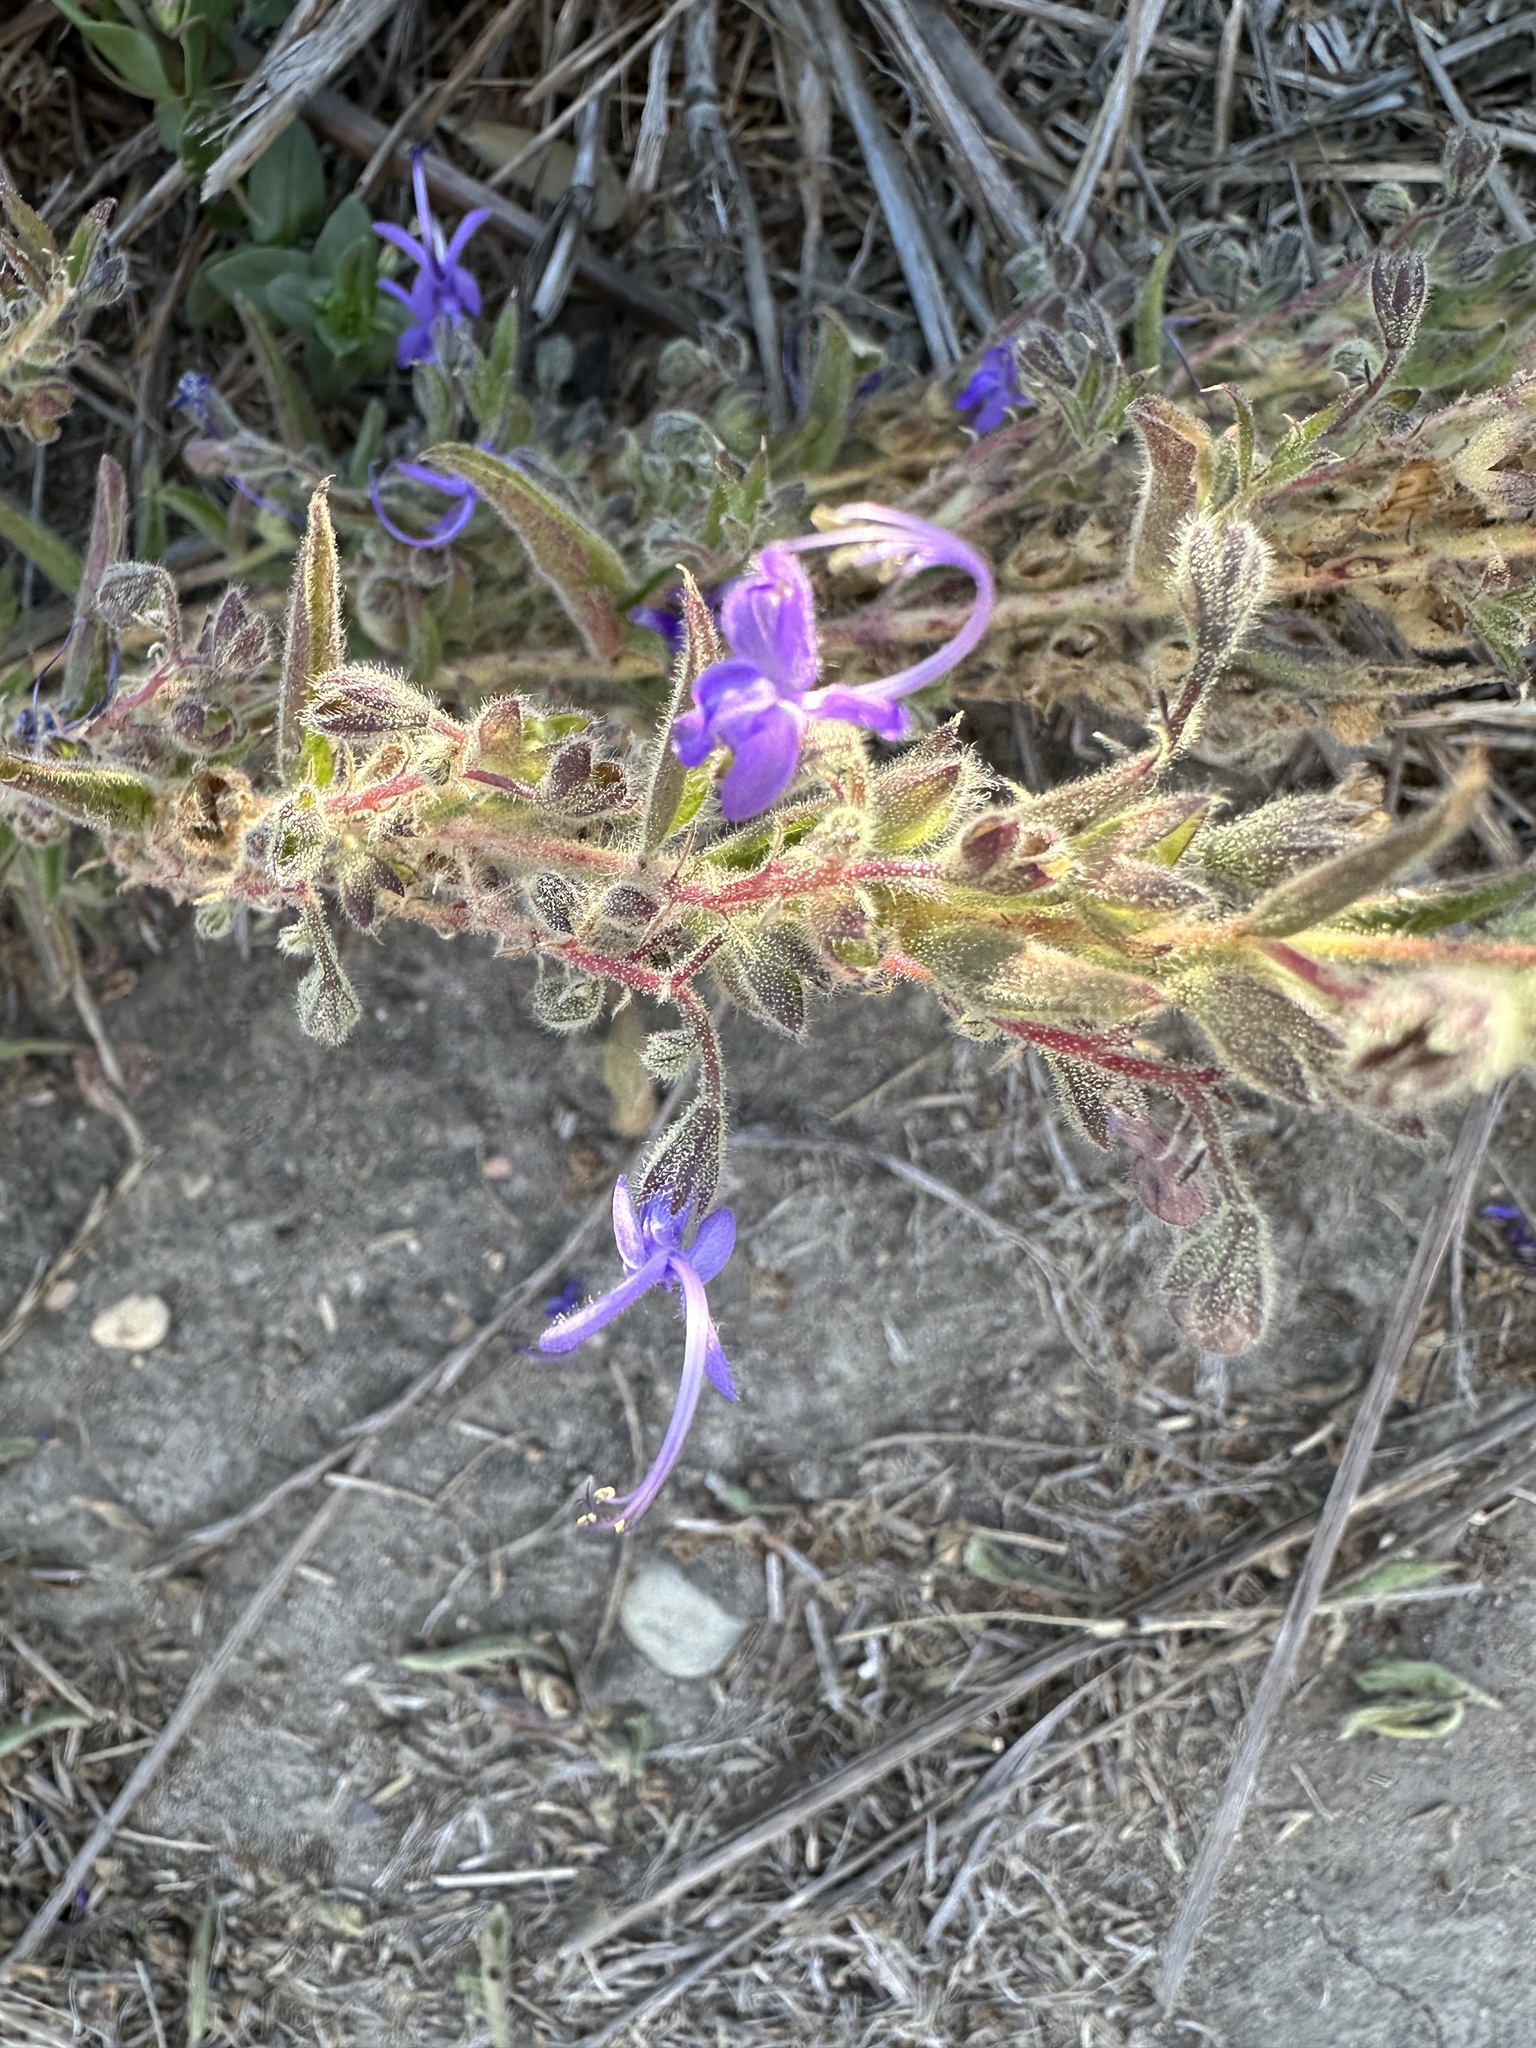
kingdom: Plantae
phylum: Tracheophyta
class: Magnoliopsida
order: Lamiales
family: Lamiaceae
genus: Trichostema
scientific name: Trichostema lanceolatum
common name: Vinegar-weed
